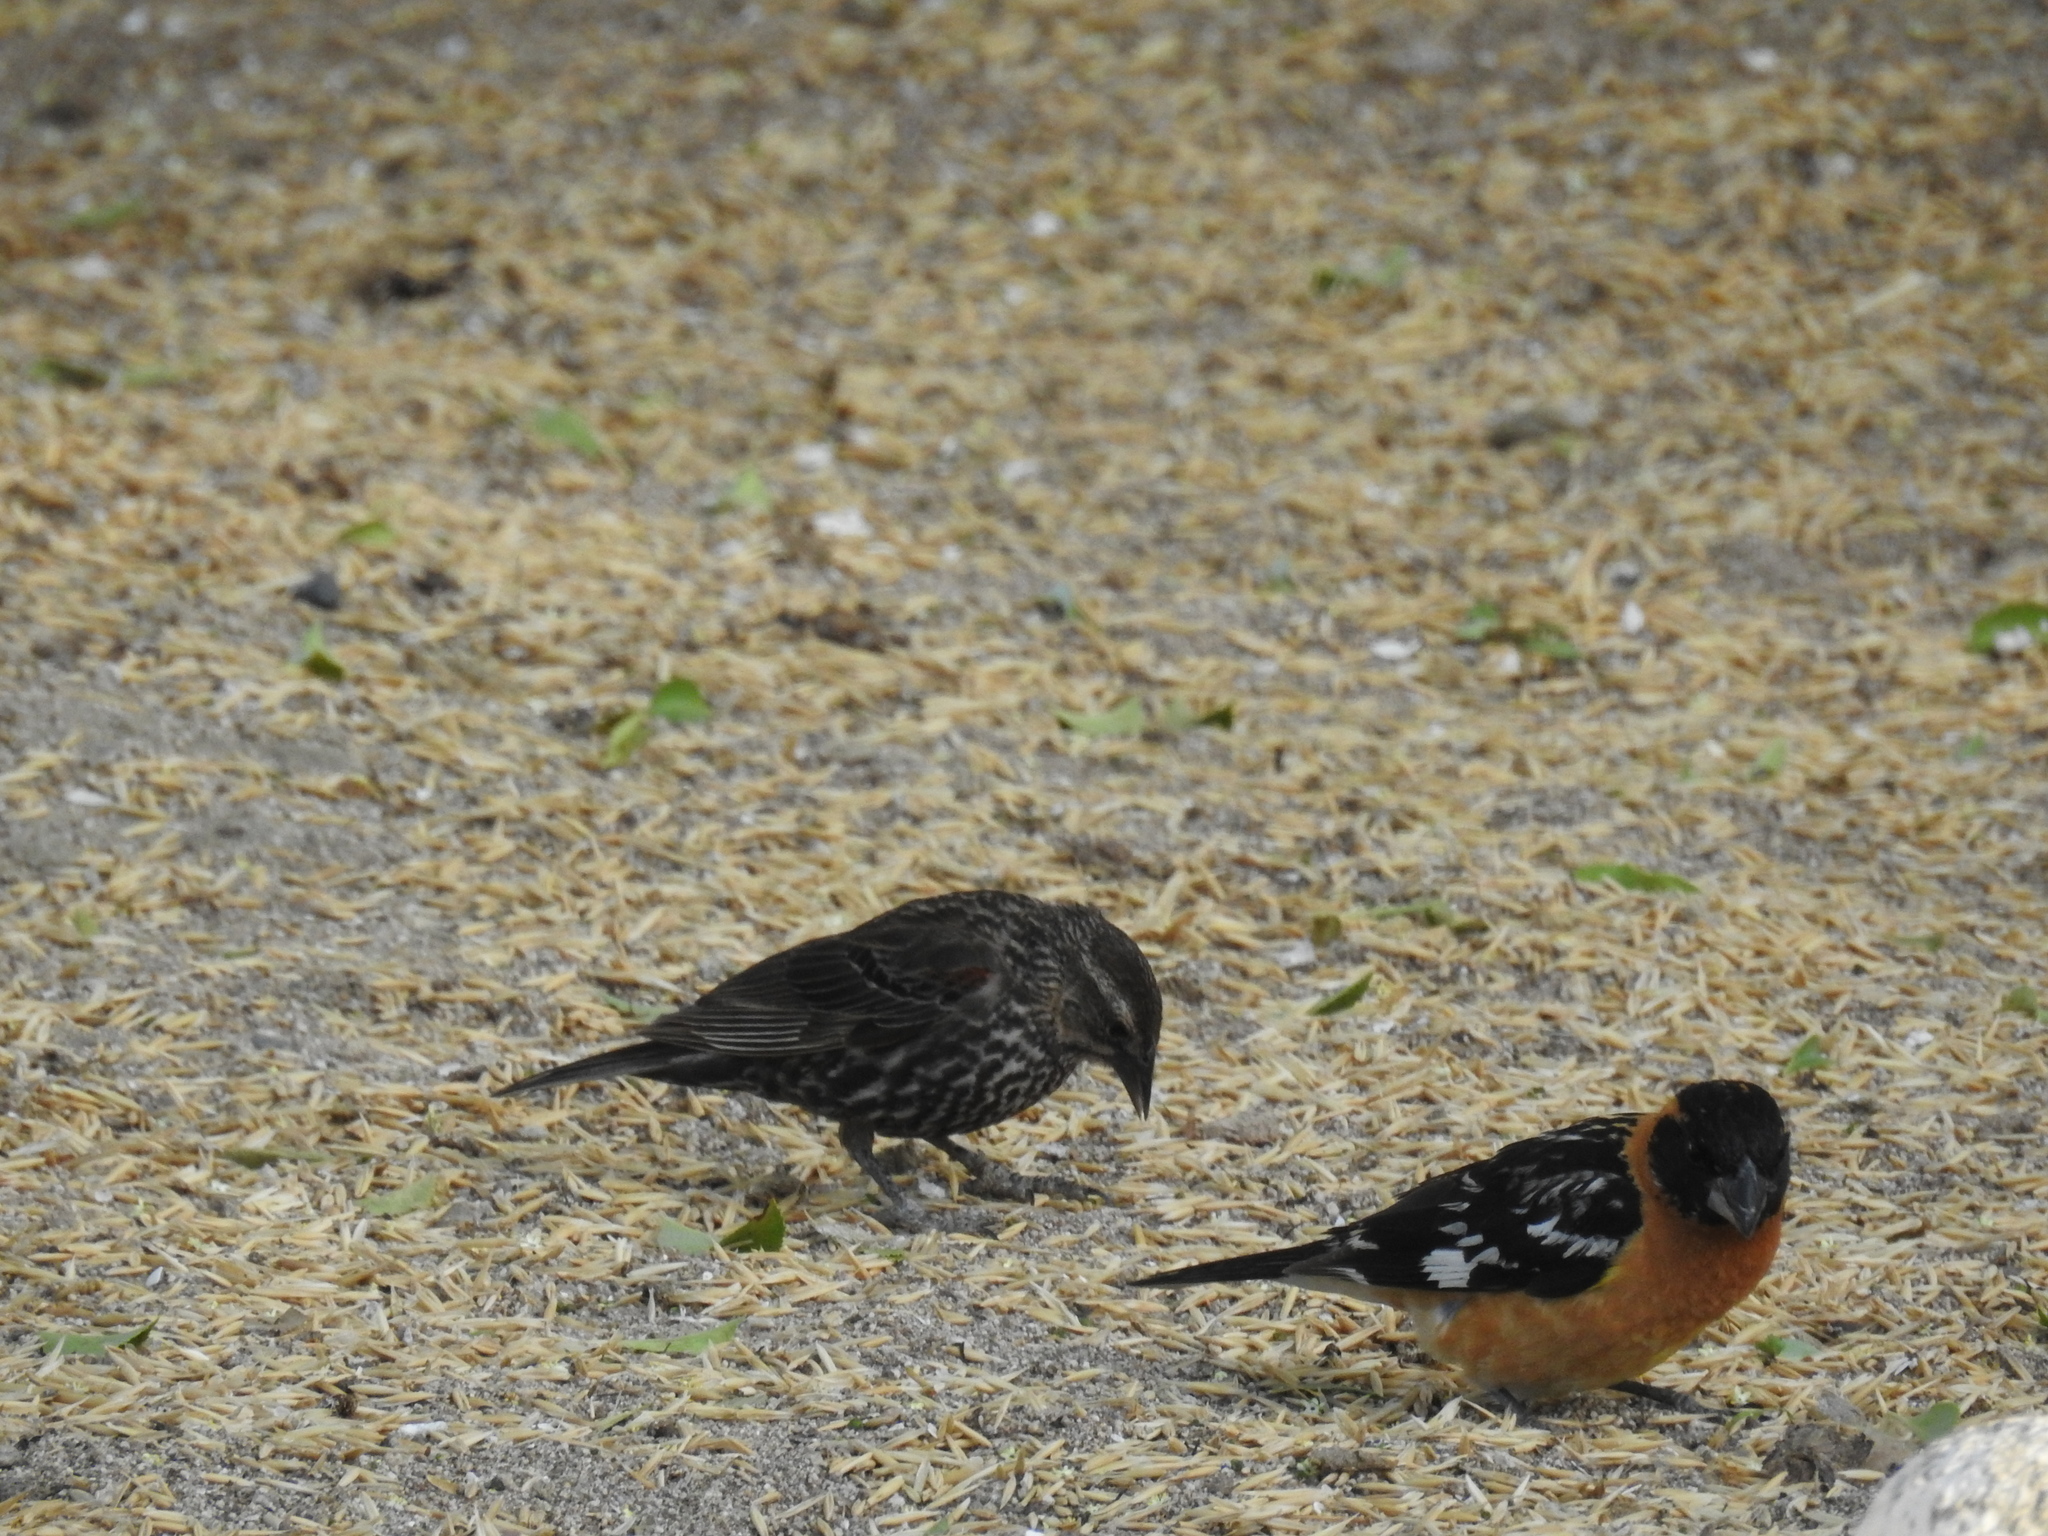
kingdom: Animalia
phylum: Chordata
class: Aves
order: Passeriformes
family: Icteridae
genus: Agelaius
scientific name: Agelaius phoeniceus
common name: Red-winged blackbird
